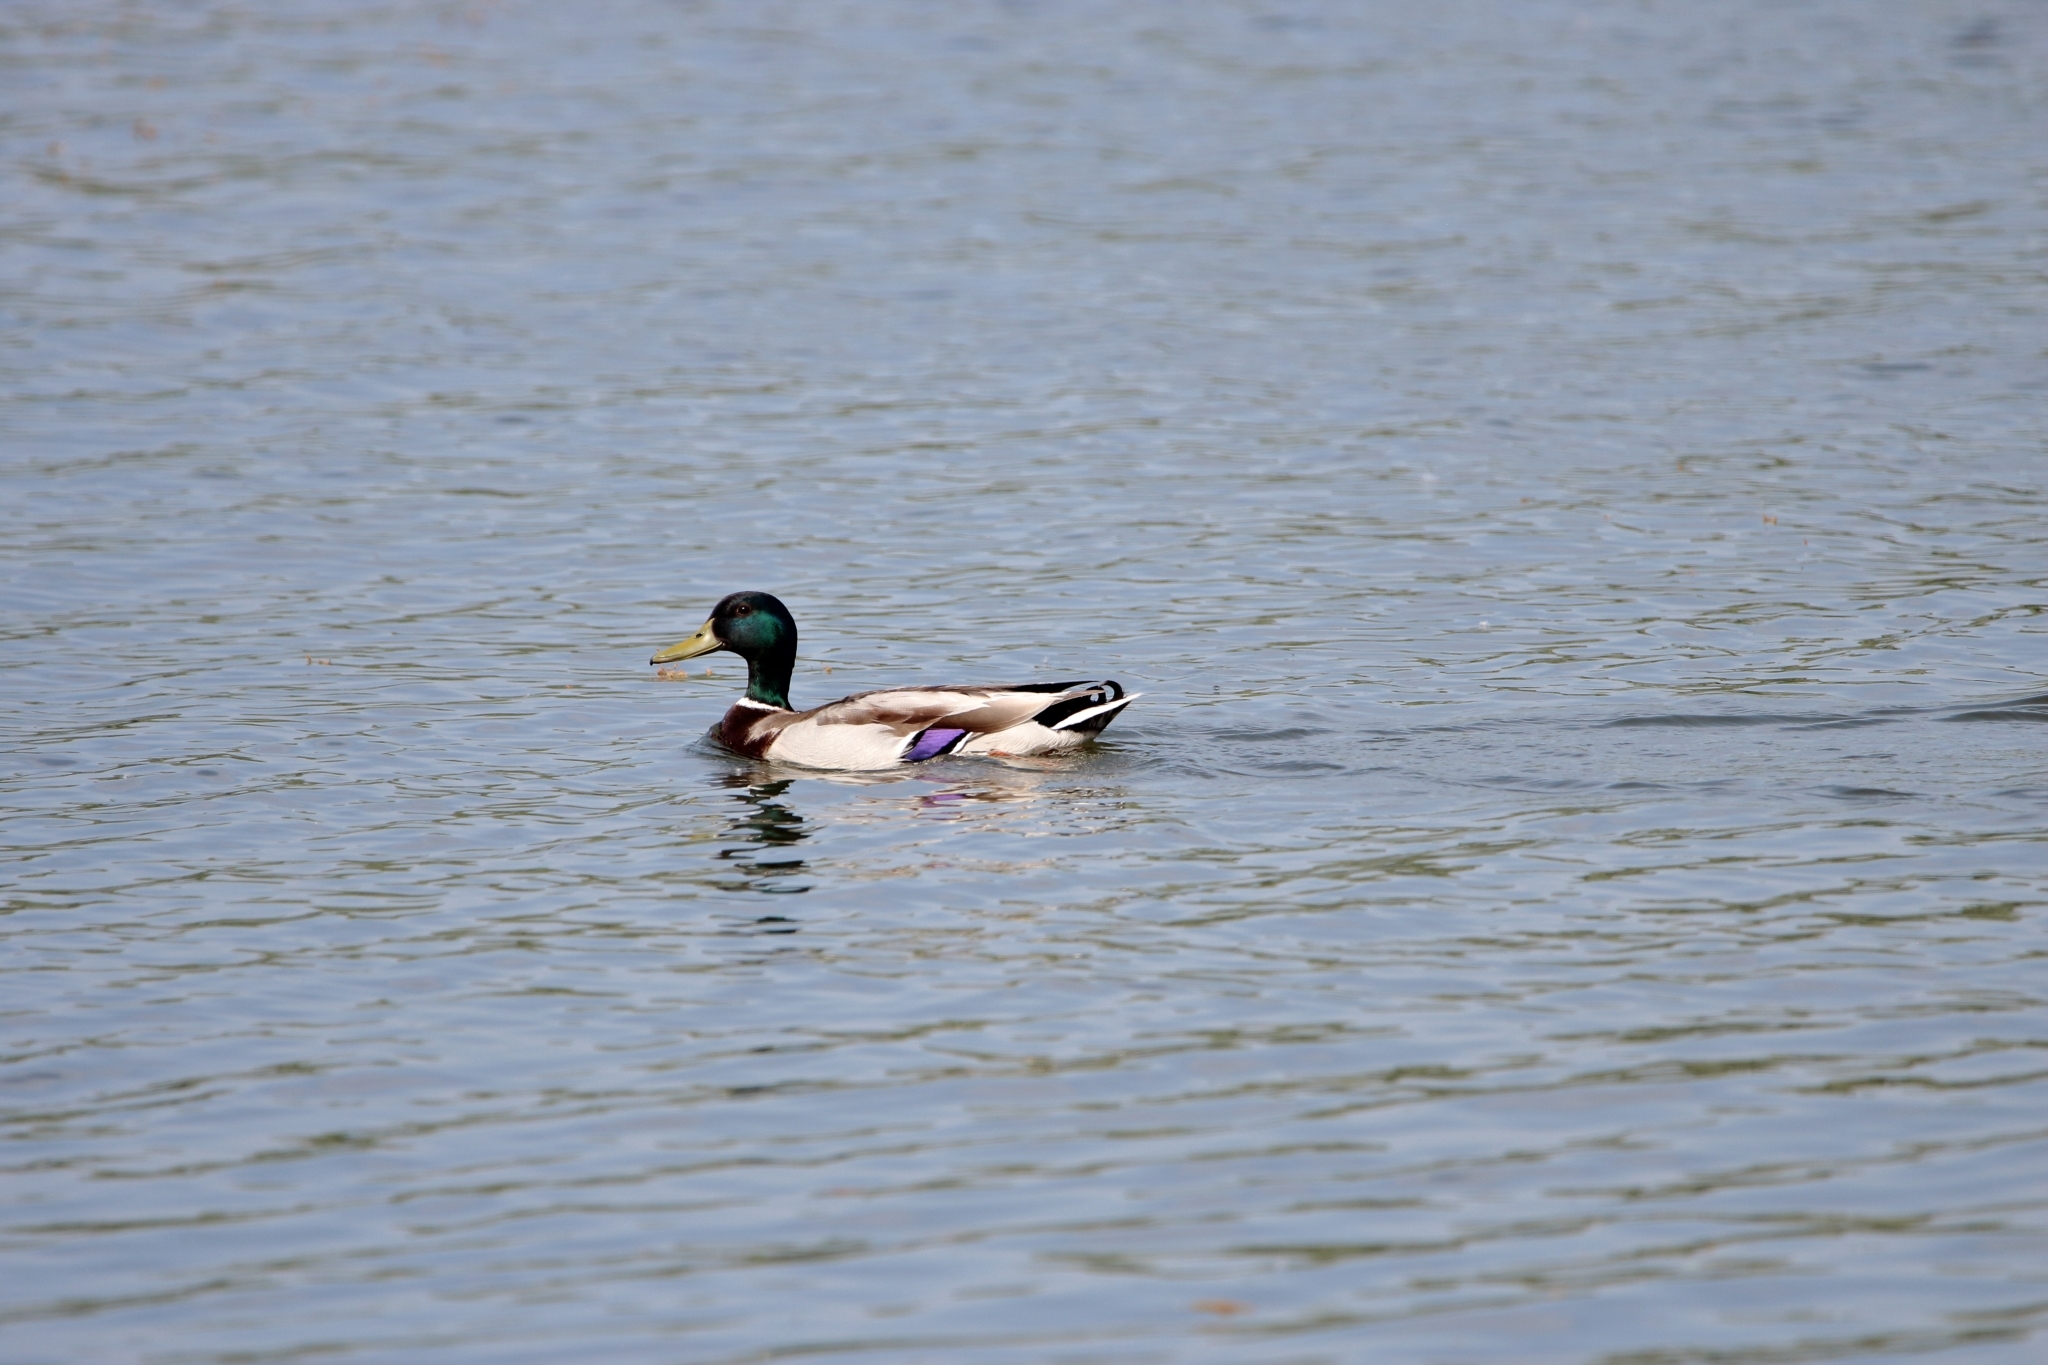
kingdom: Animalia
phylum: Chordata
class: Aves
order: Anseriformes
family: Anatidae
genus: Anas
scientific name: Anas platyrhynchos
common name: Mallard
